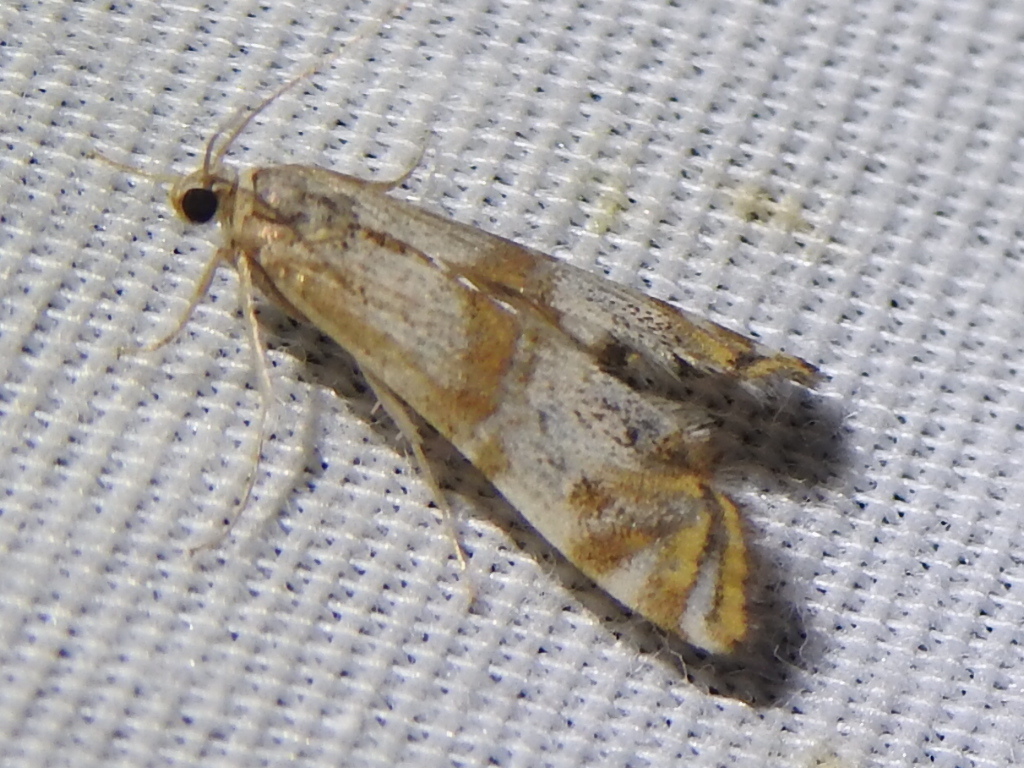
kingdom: Animalia
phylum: Arthropoda
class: Insecta
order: Lepidoptera
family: Crambidae
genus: Petrophila
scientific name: Petrophila bifascialis
